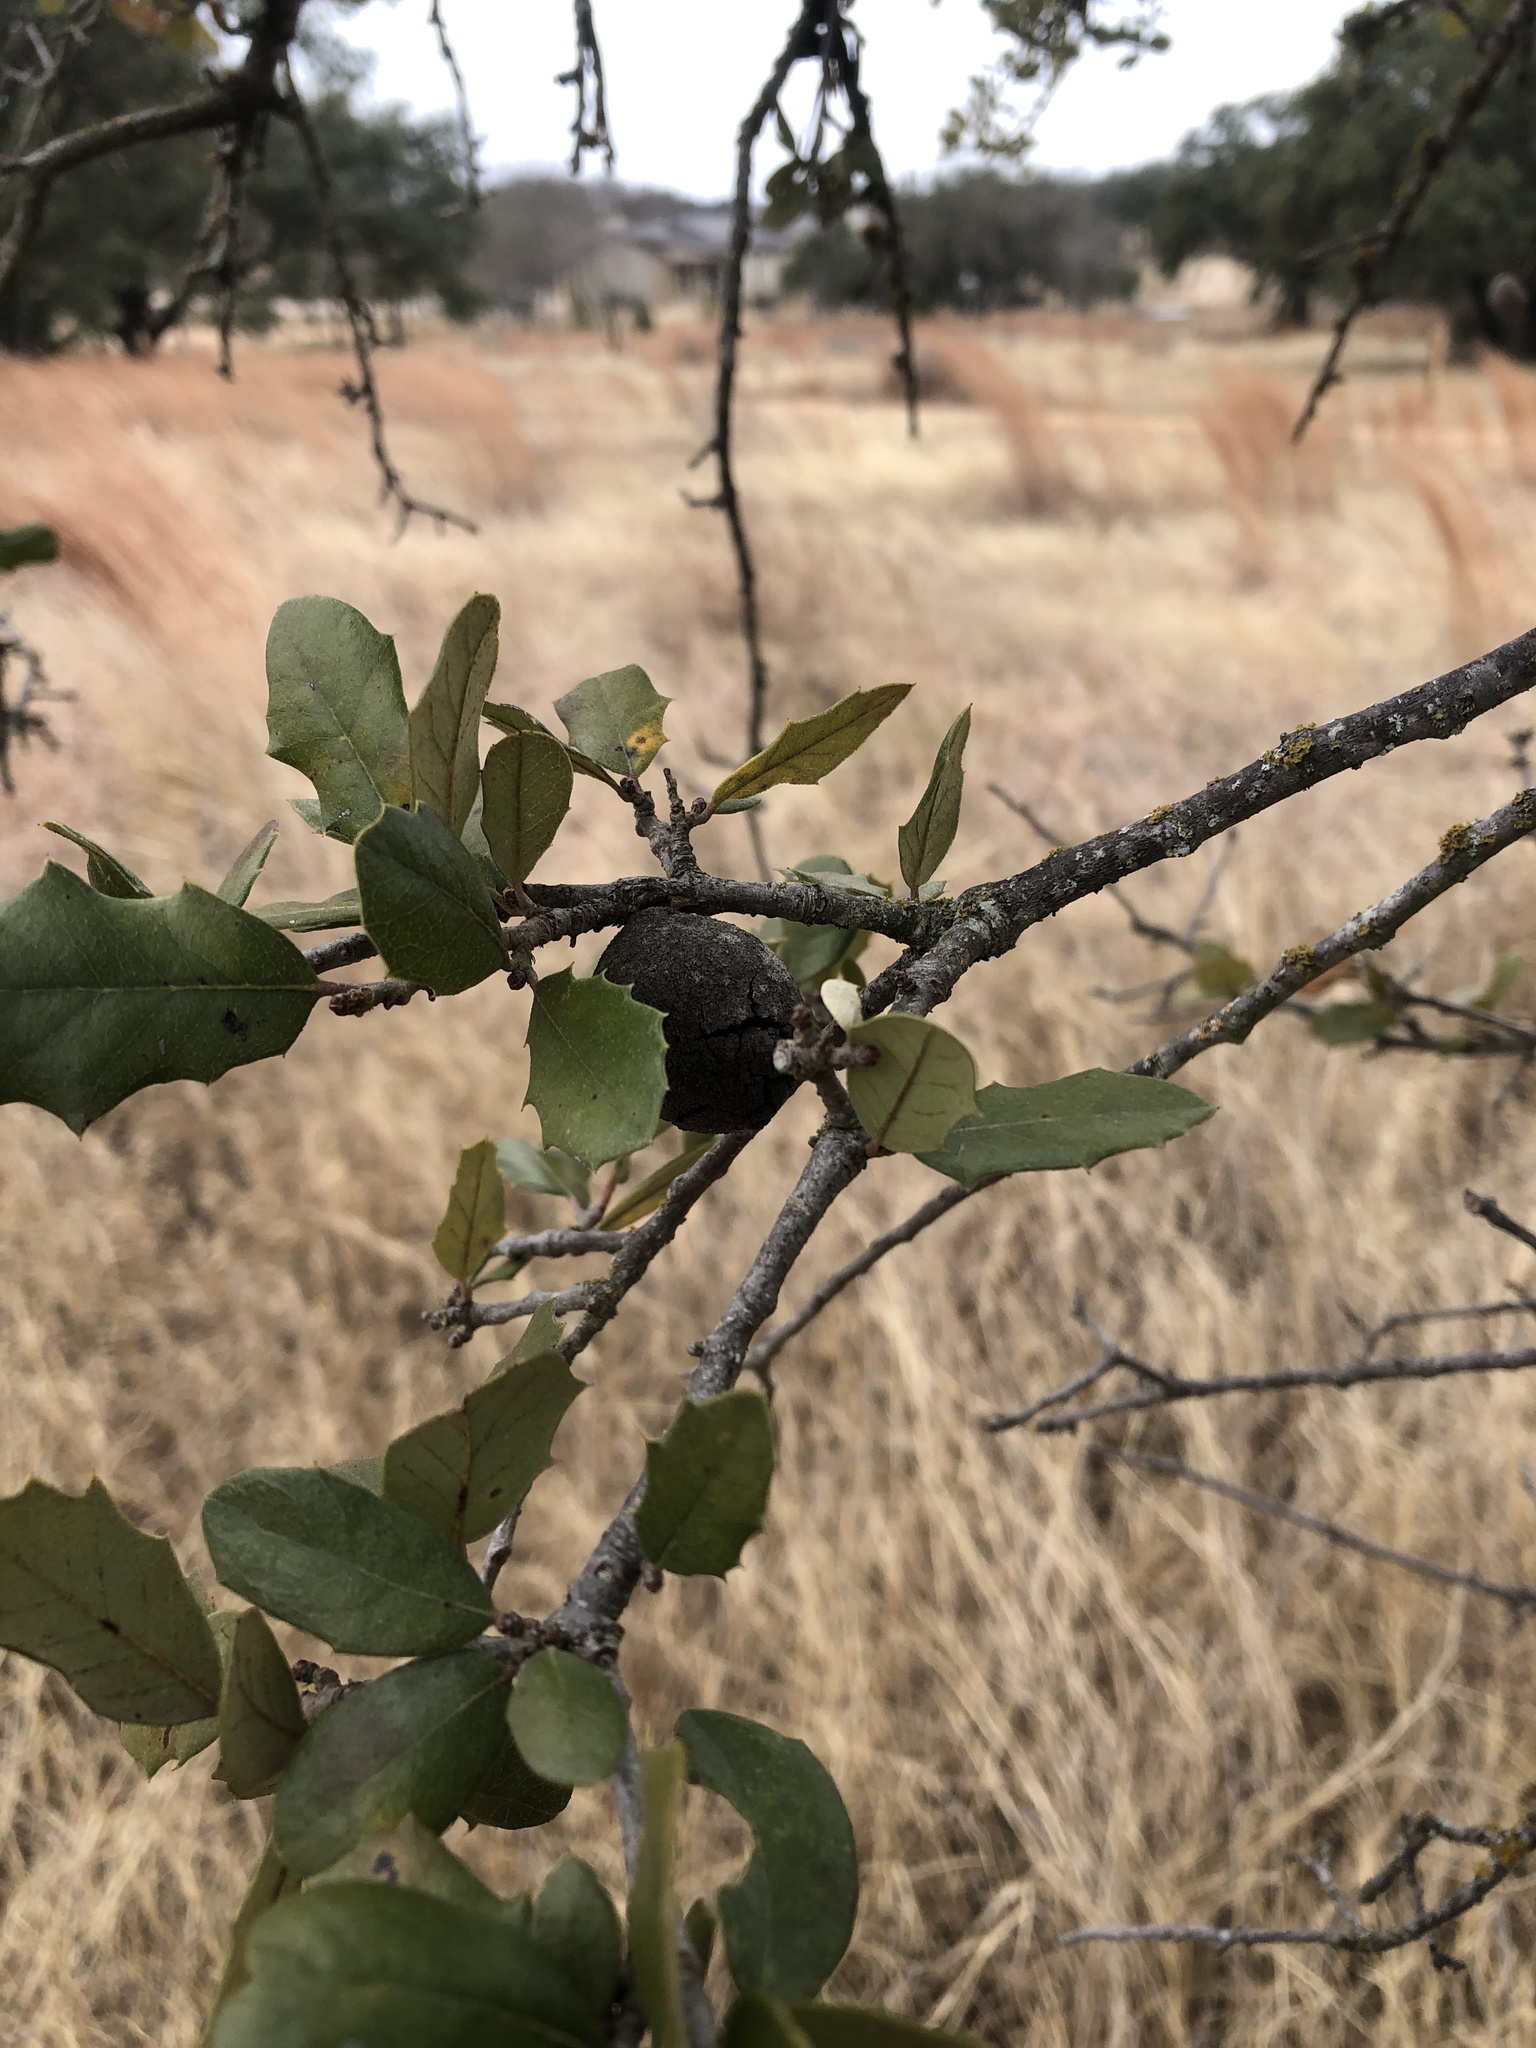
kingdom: Animalia
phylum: Arthropoda
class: Insecta
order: Hymenoptera
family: Cynipidae
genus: Disholcaspis
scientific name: Disholcaspis
